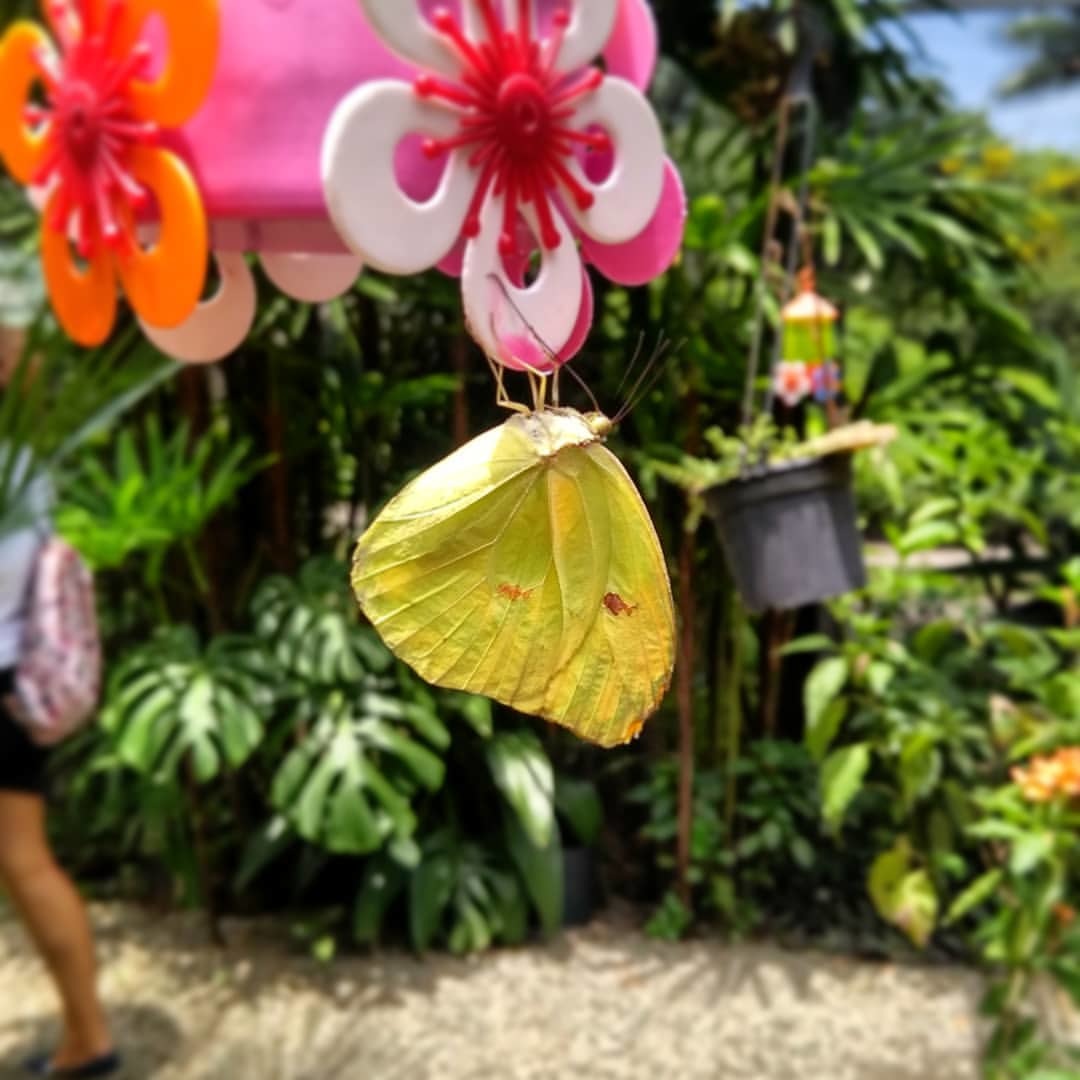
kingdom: Animalia
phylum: Arthropoda
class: Insecta
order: Lepidoptera
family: Pieridae
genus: Anteos
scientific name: Anteos menippe
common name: Orangetip angled-sulphur
